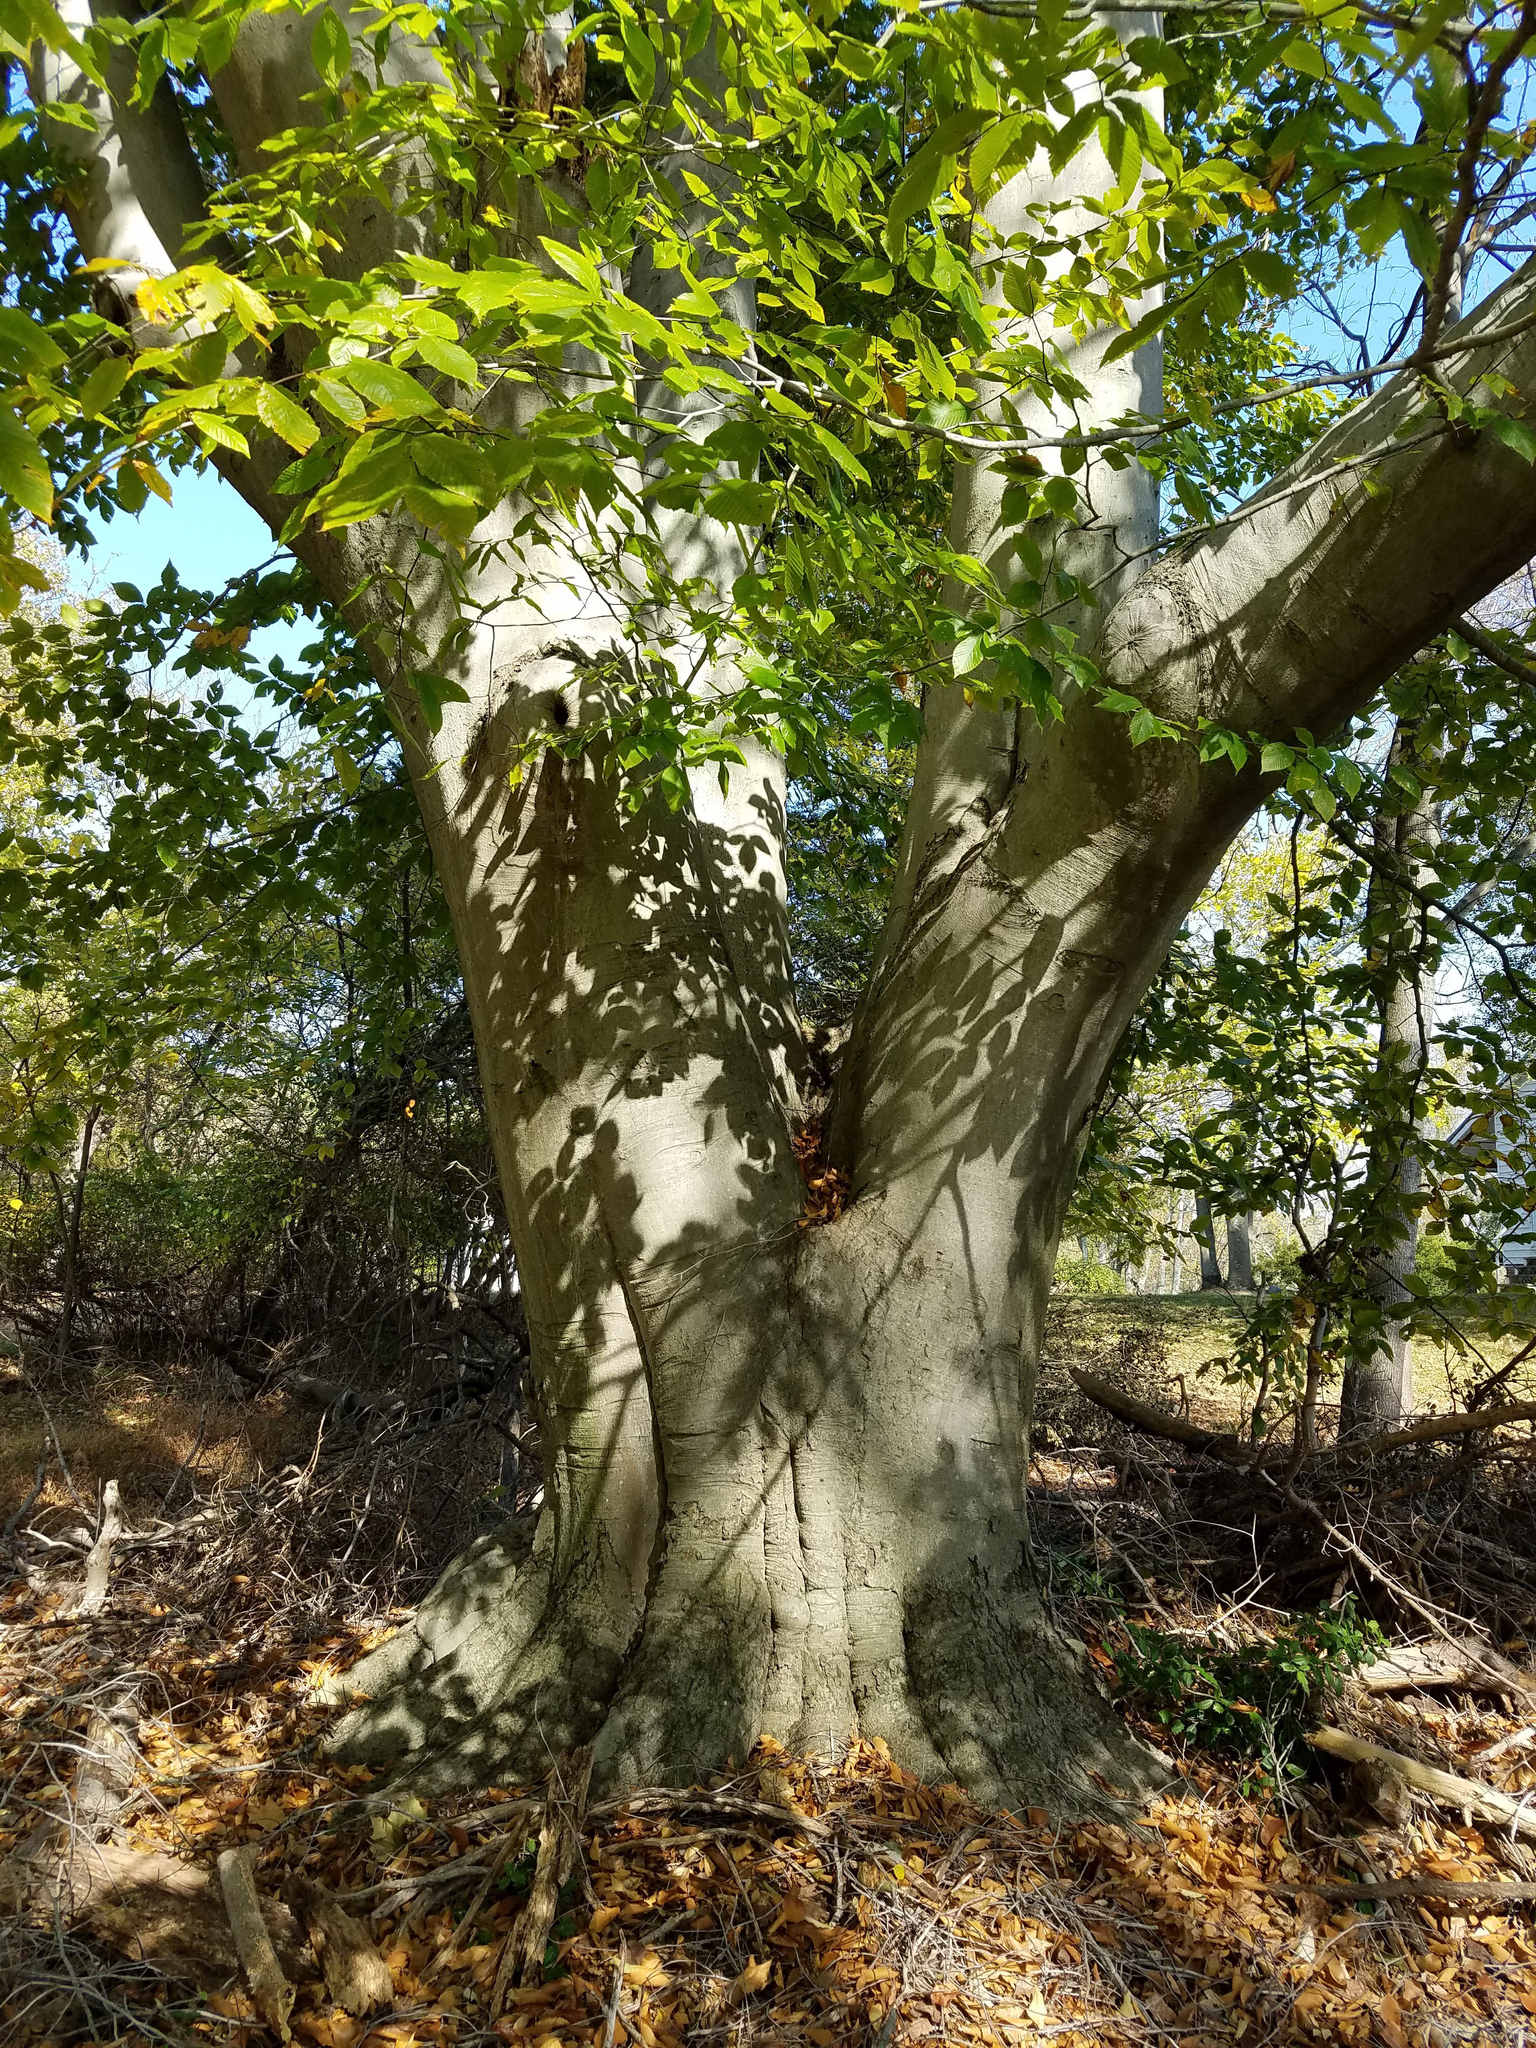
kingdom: Plantae
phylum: Tracheophyta
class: Magnoliopsida
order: Fagales
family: Fagaceae
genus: Fagus
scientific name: Fagus grandifolia
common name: American beech
